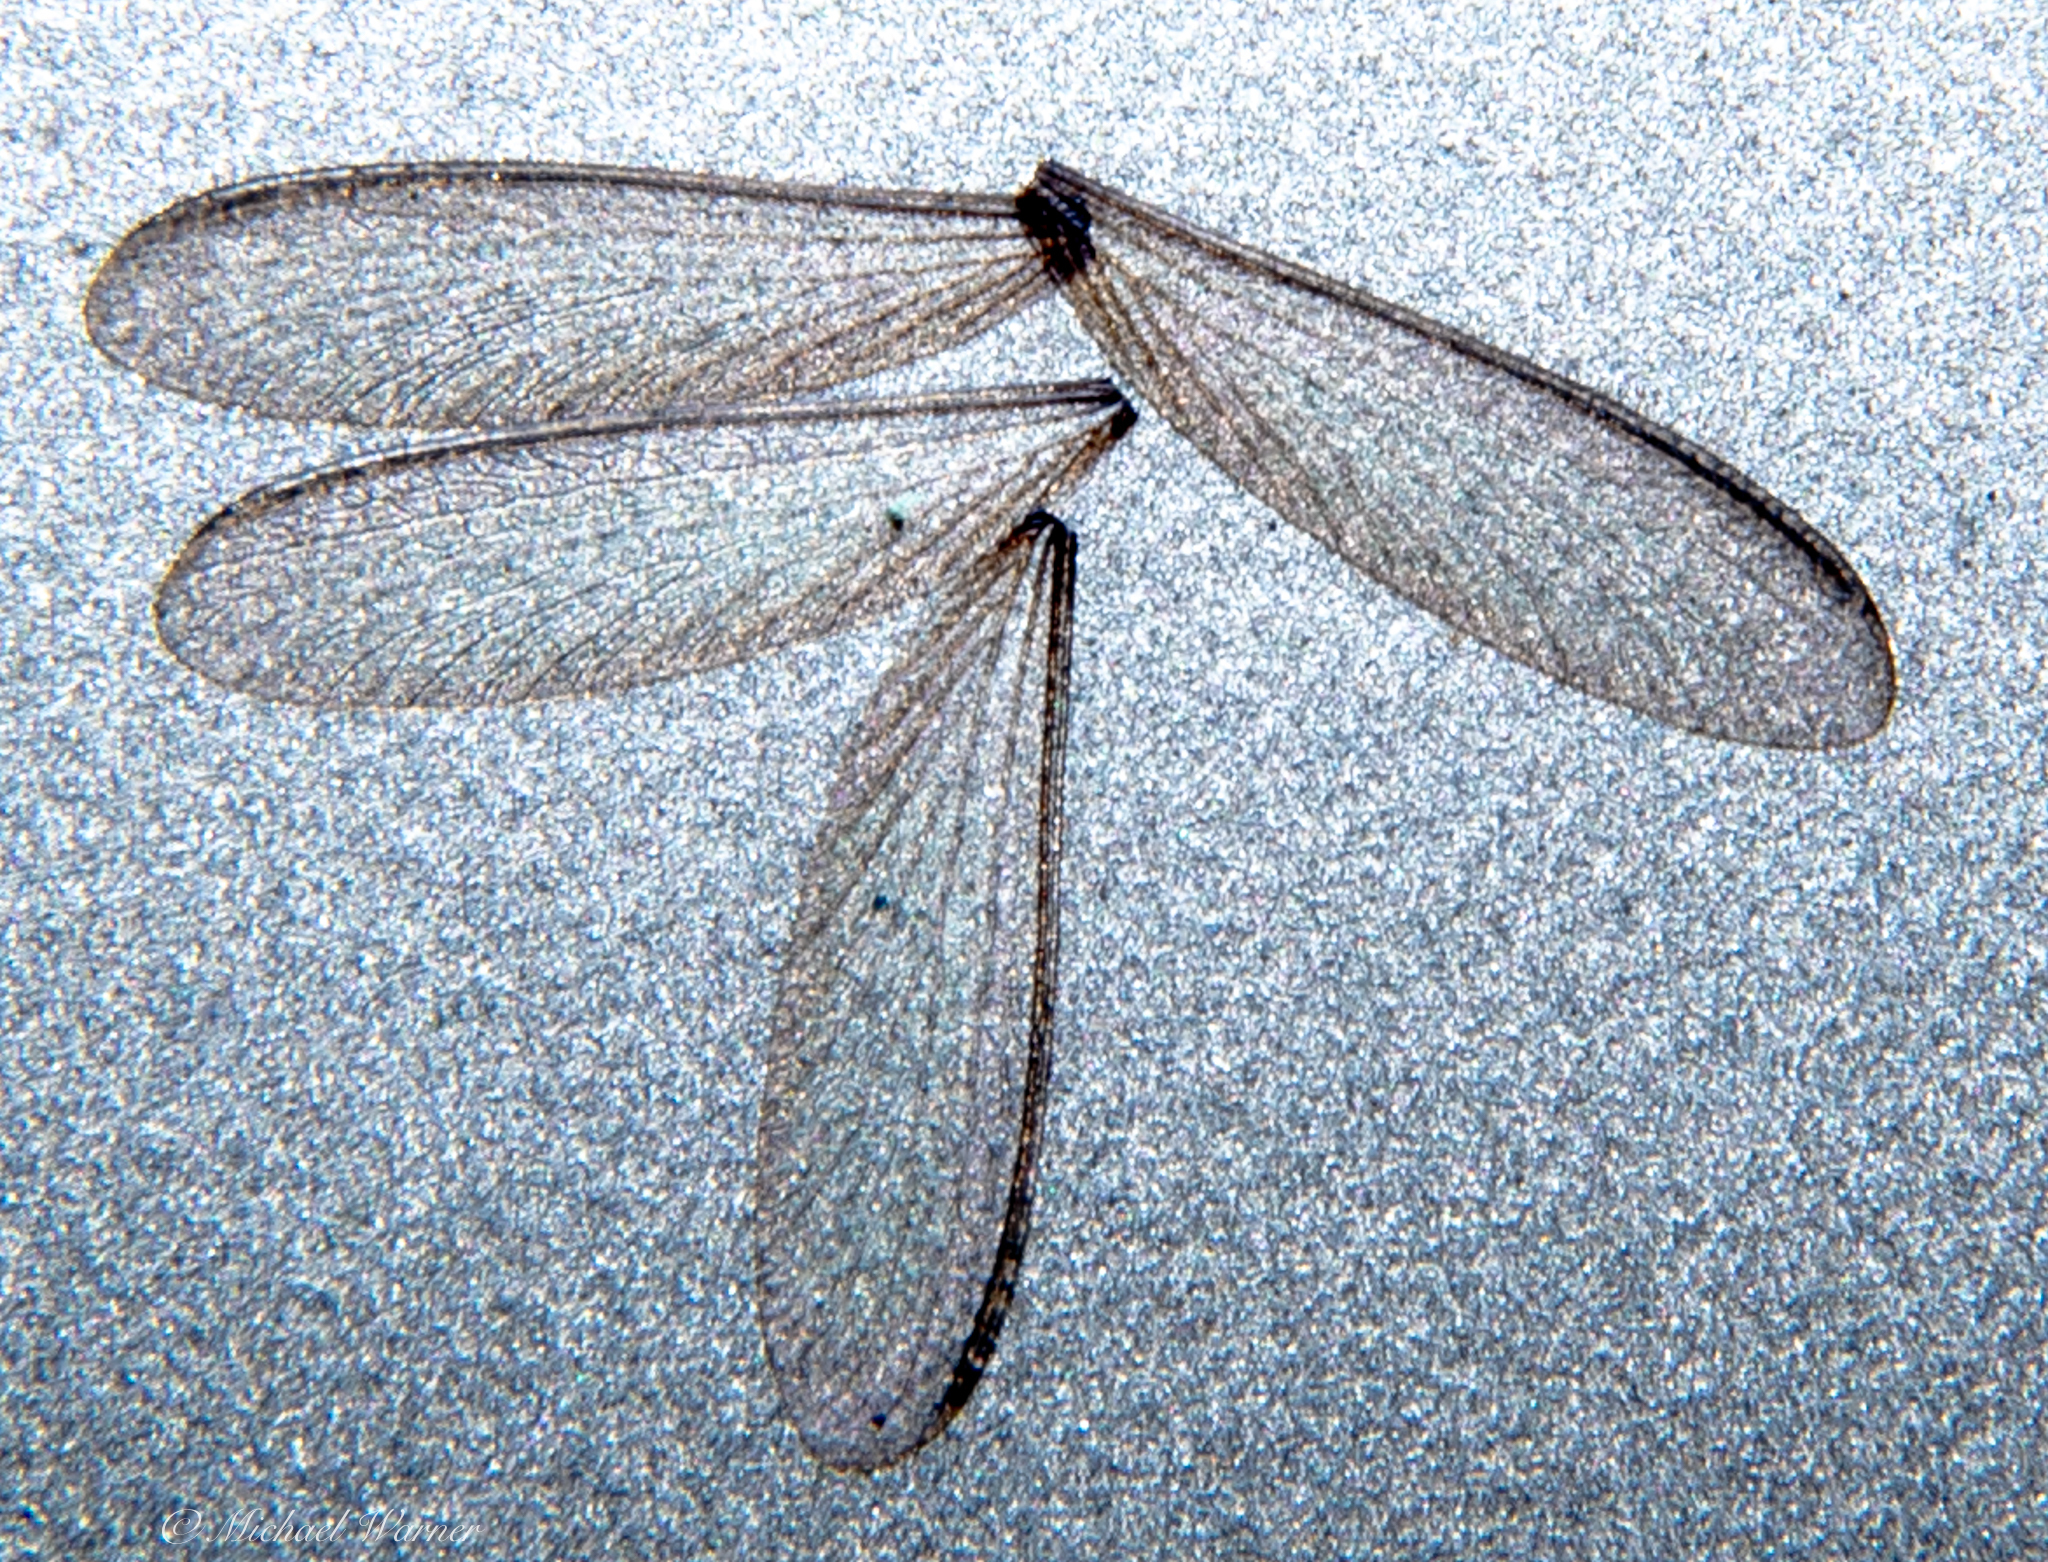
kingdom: Animalia
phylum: Arthropoda
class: Insecta
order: Blattodea
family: Rhinotermitidae
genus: Reticulitermes
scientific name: Reticulitermes hesperus
